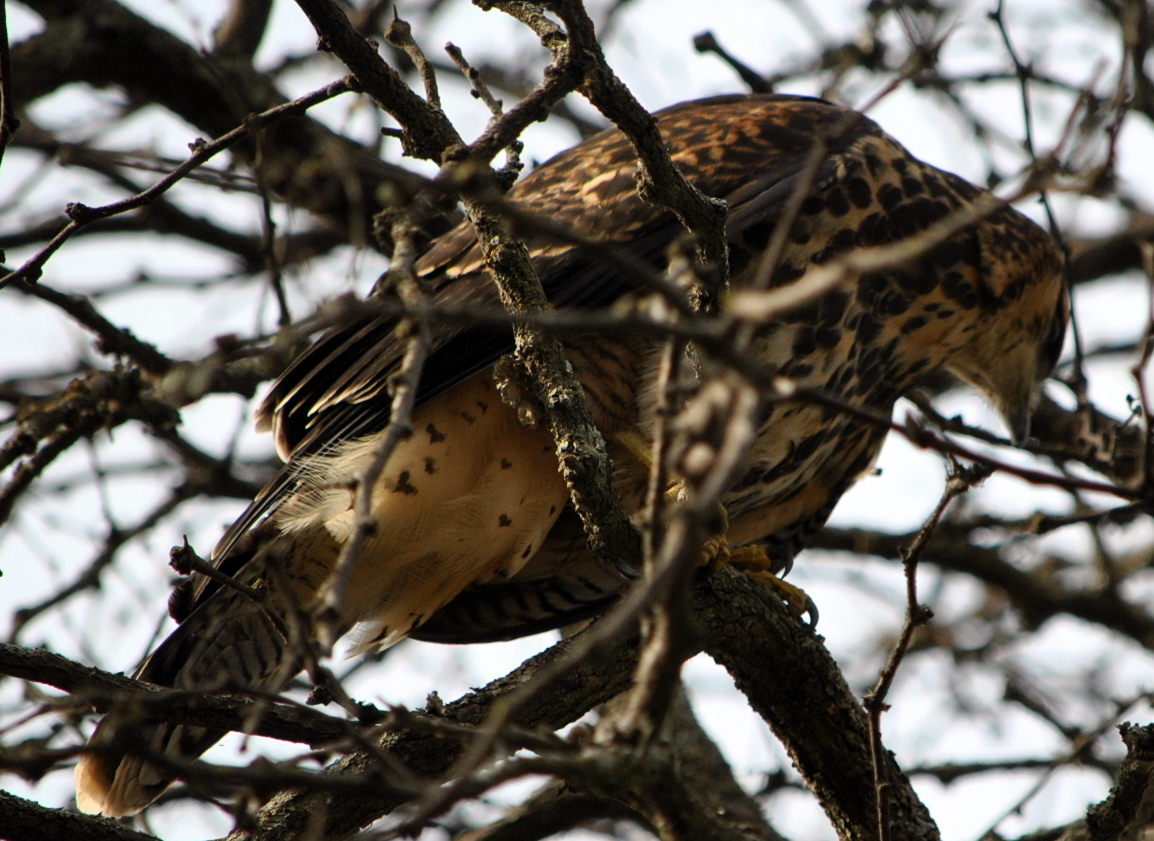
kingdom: Animalia
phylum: Chordata
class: Aves
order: Accipitriformes
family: Accipitridae
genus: Parabuteo
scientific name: Parabuteo unicinctus
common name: Harris's hawk
